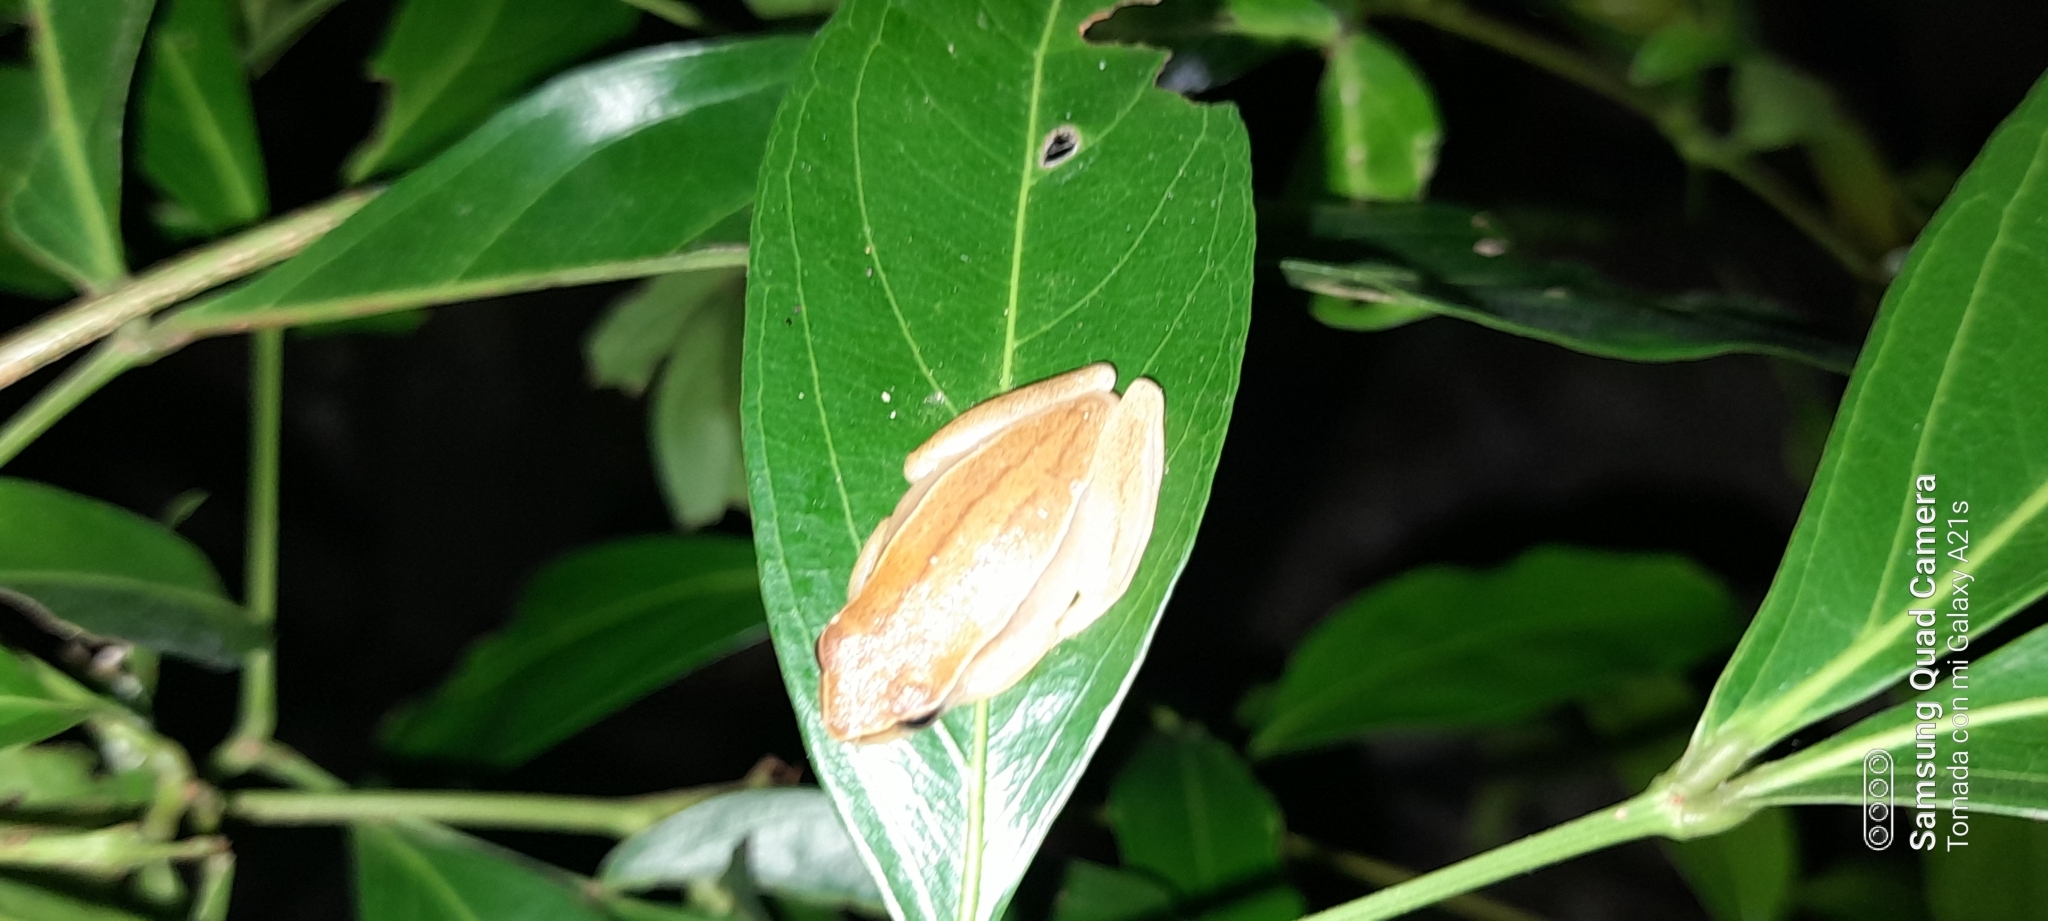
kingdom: Animalia
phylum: Chordata
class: Amphibia
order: Anura
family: Hylidae
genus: Dendropsophus
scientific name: Dendropsophus microcephalus
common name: Small-headed treefrog
